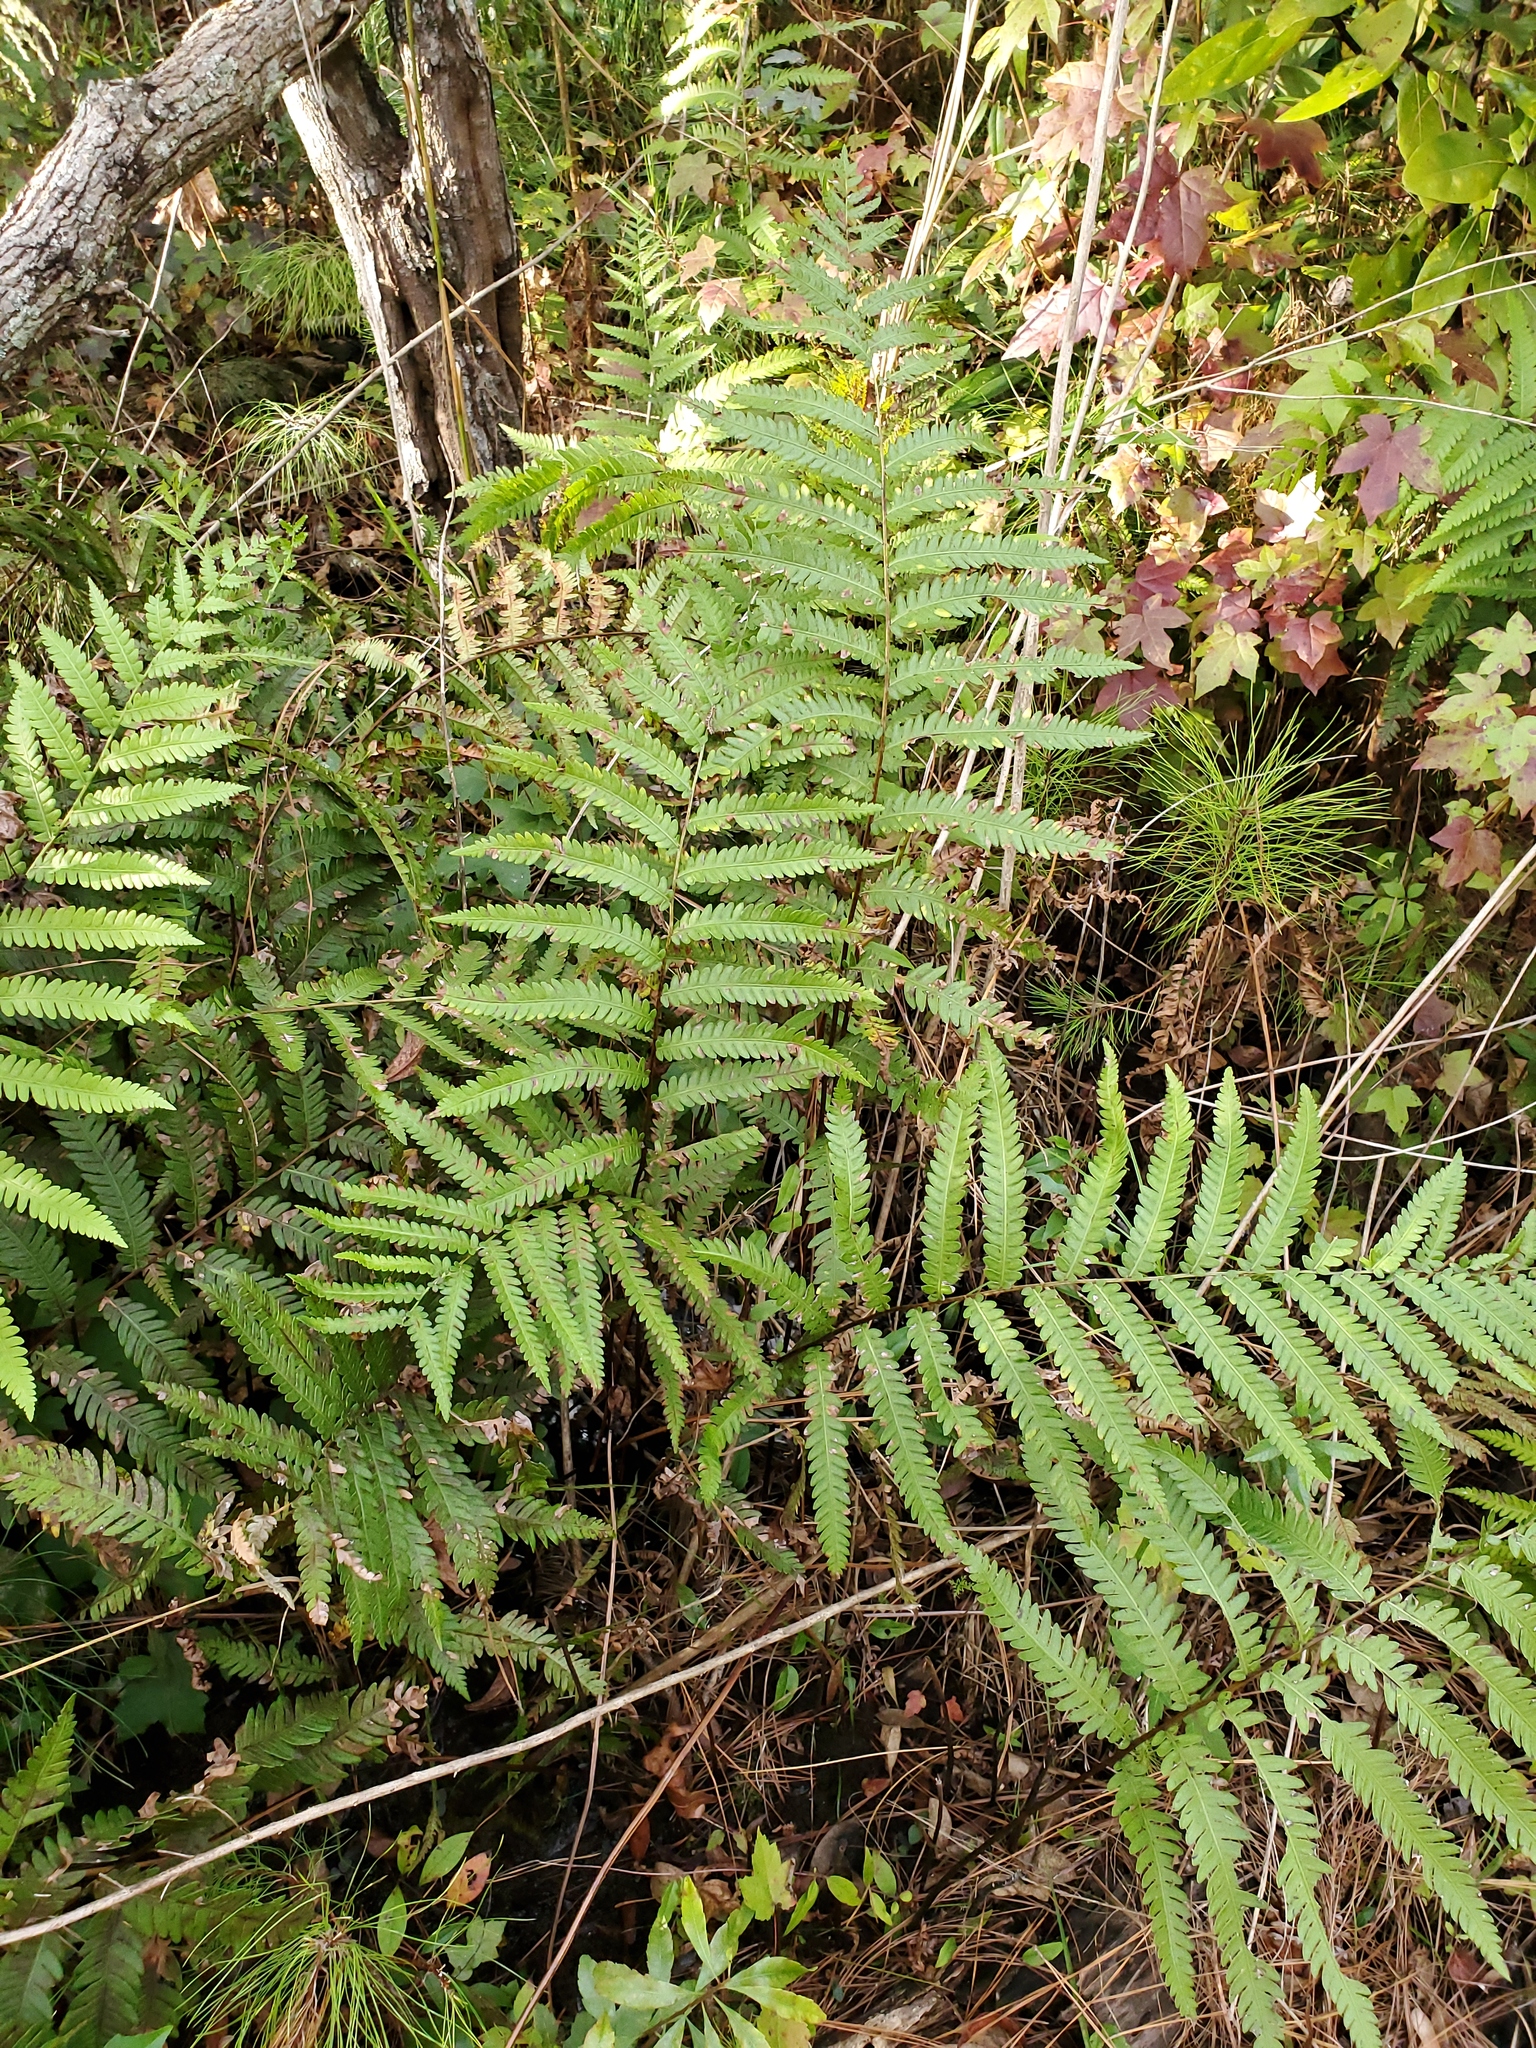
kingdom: Plantae
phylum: Tracheophyta
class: Polypodiopsida
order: Polypodiales
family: Blechnaceae
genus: Anchistea
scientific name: Anchistea virginica
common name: Virginia chain fern
